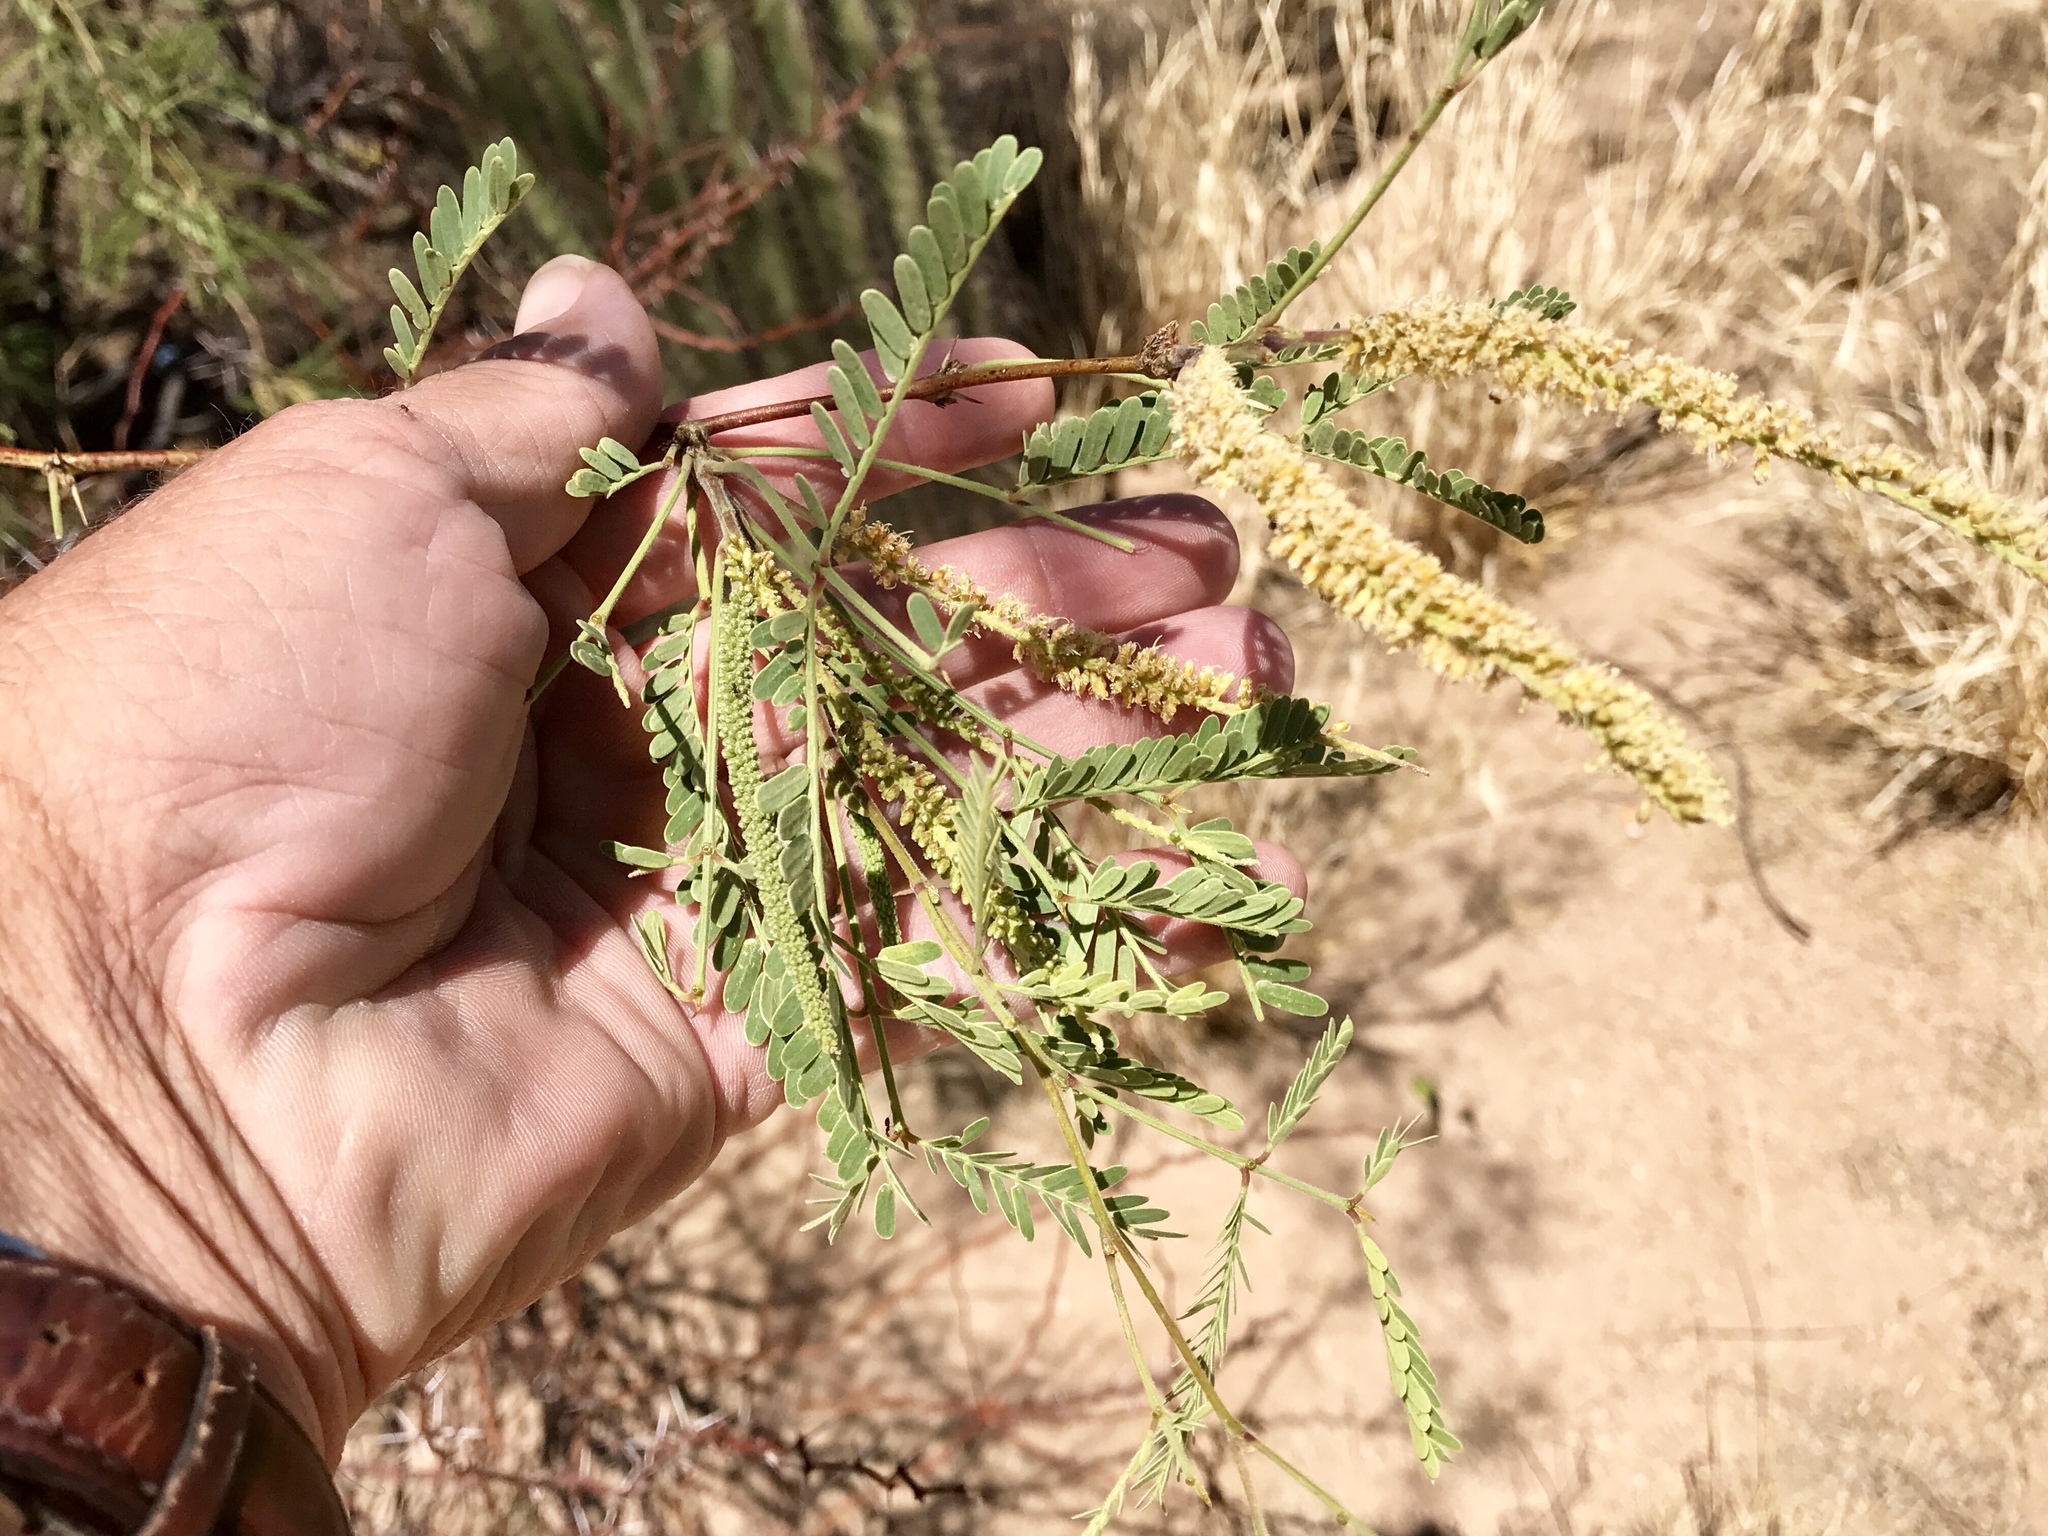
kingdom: Plantae
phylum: Tracheophyta
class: Magnoliopsida
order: Fabales
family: Fabaceae
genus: Prosopis
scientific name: Prosopis velutina
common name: Velvet mesquite
